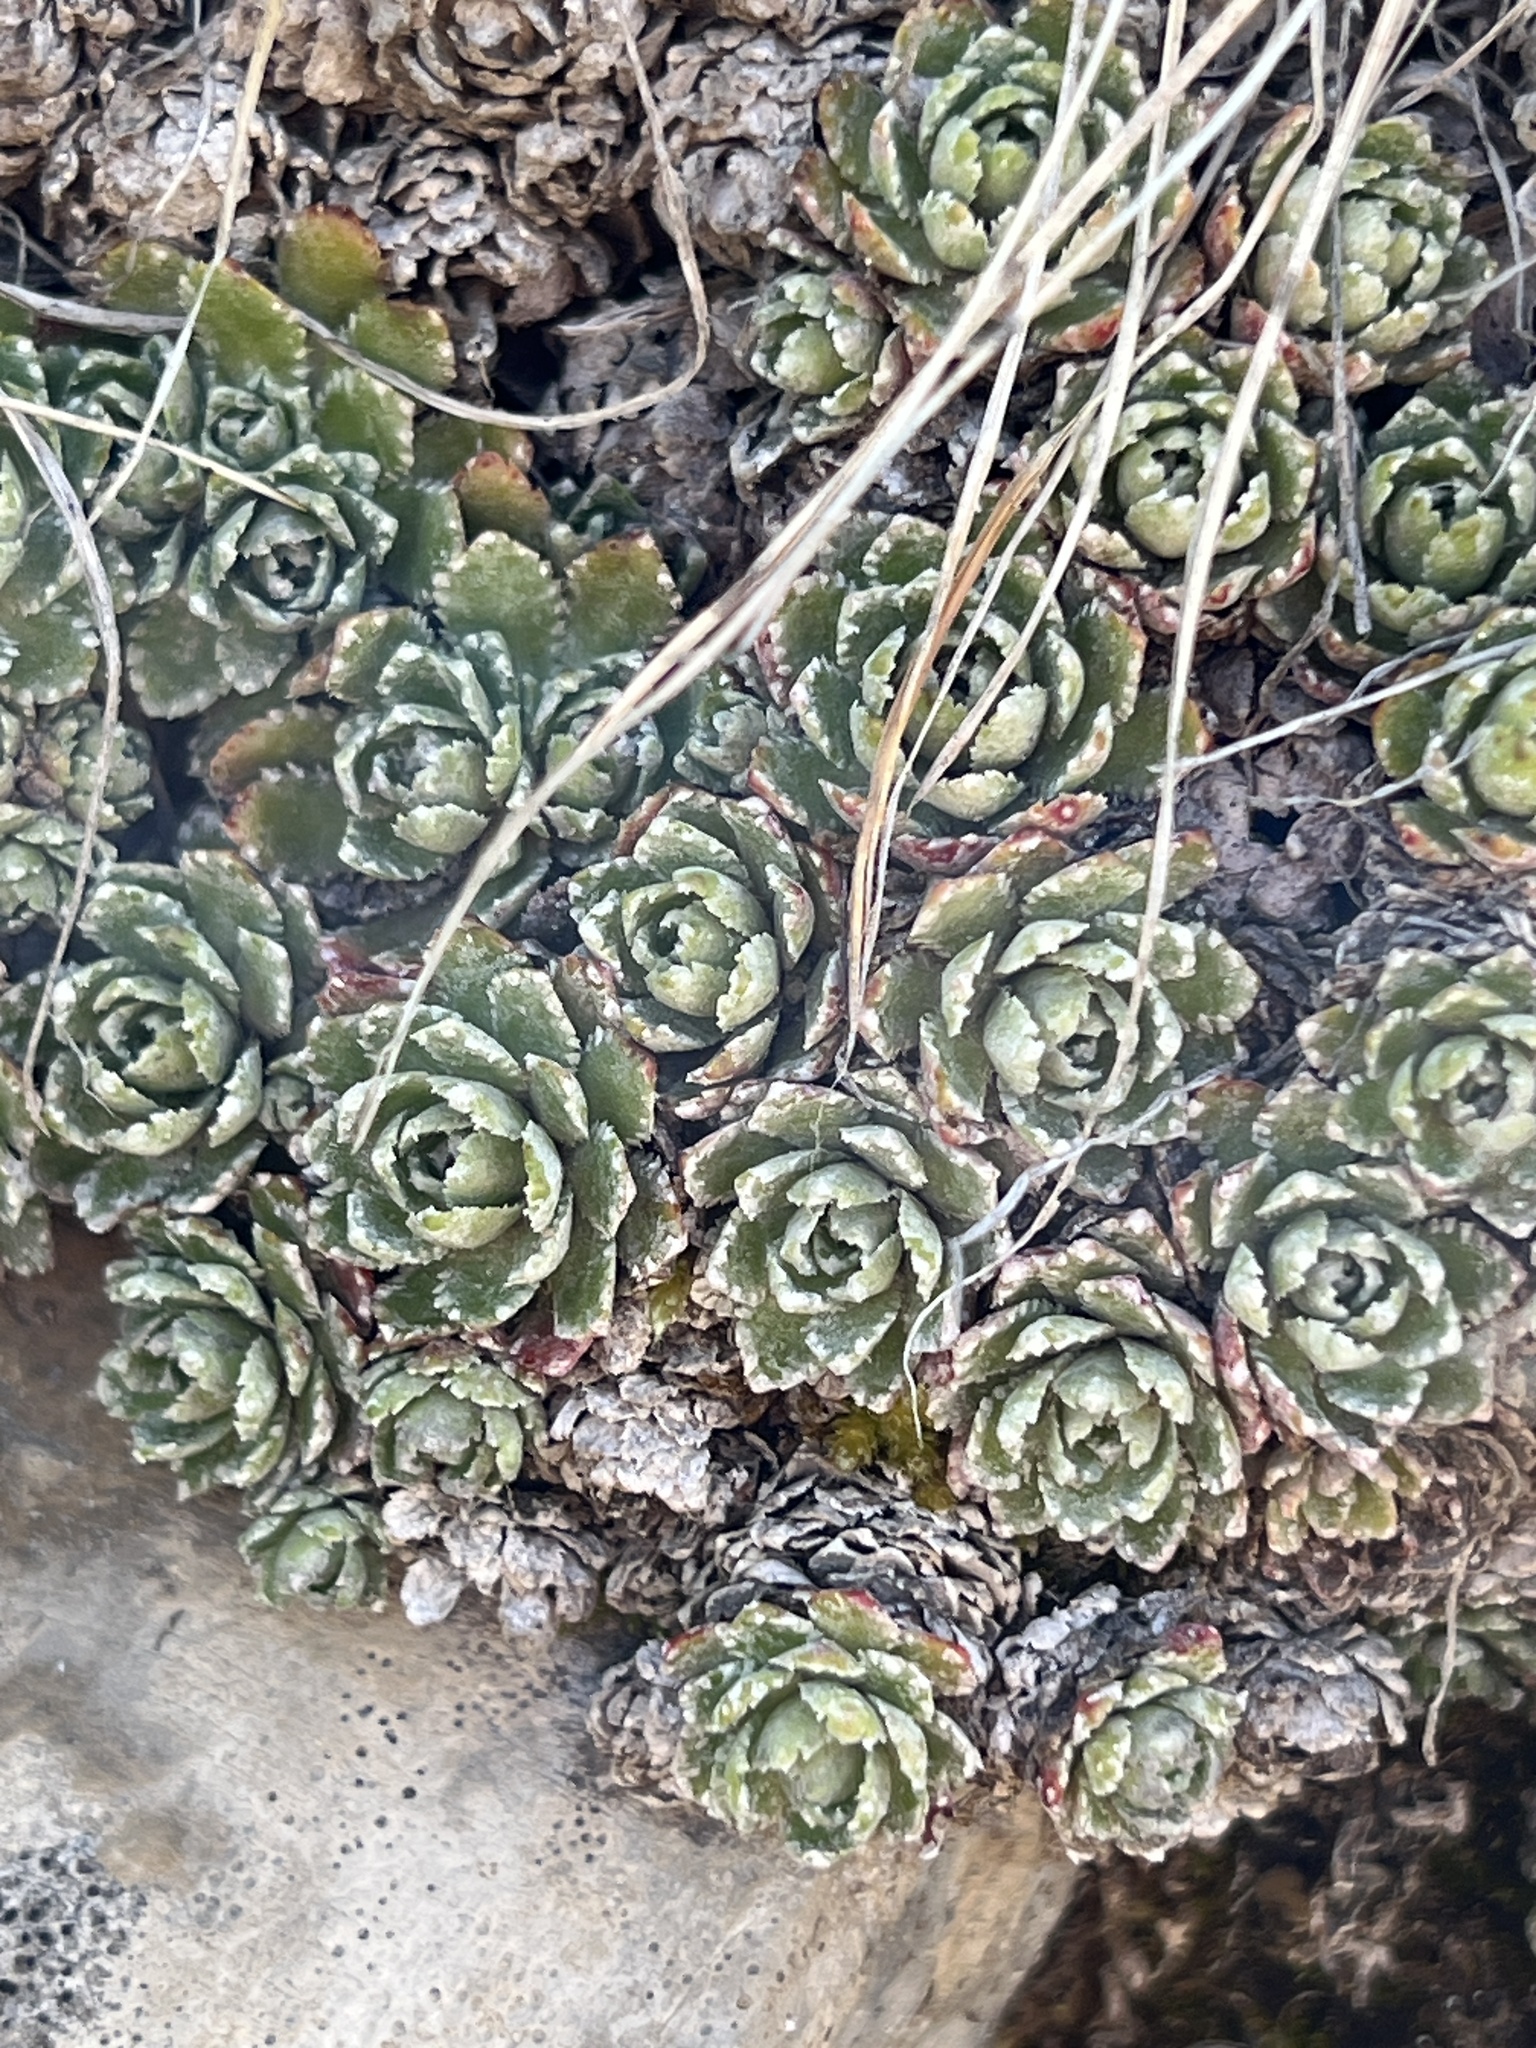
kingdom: Plantae
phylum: Tracheophyta
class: Magnoliopsida
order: Saxifragales
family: Saxifragaceae
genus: Saxifraga
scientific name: Saxifraga paniculata
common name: Livelong saxifrage
